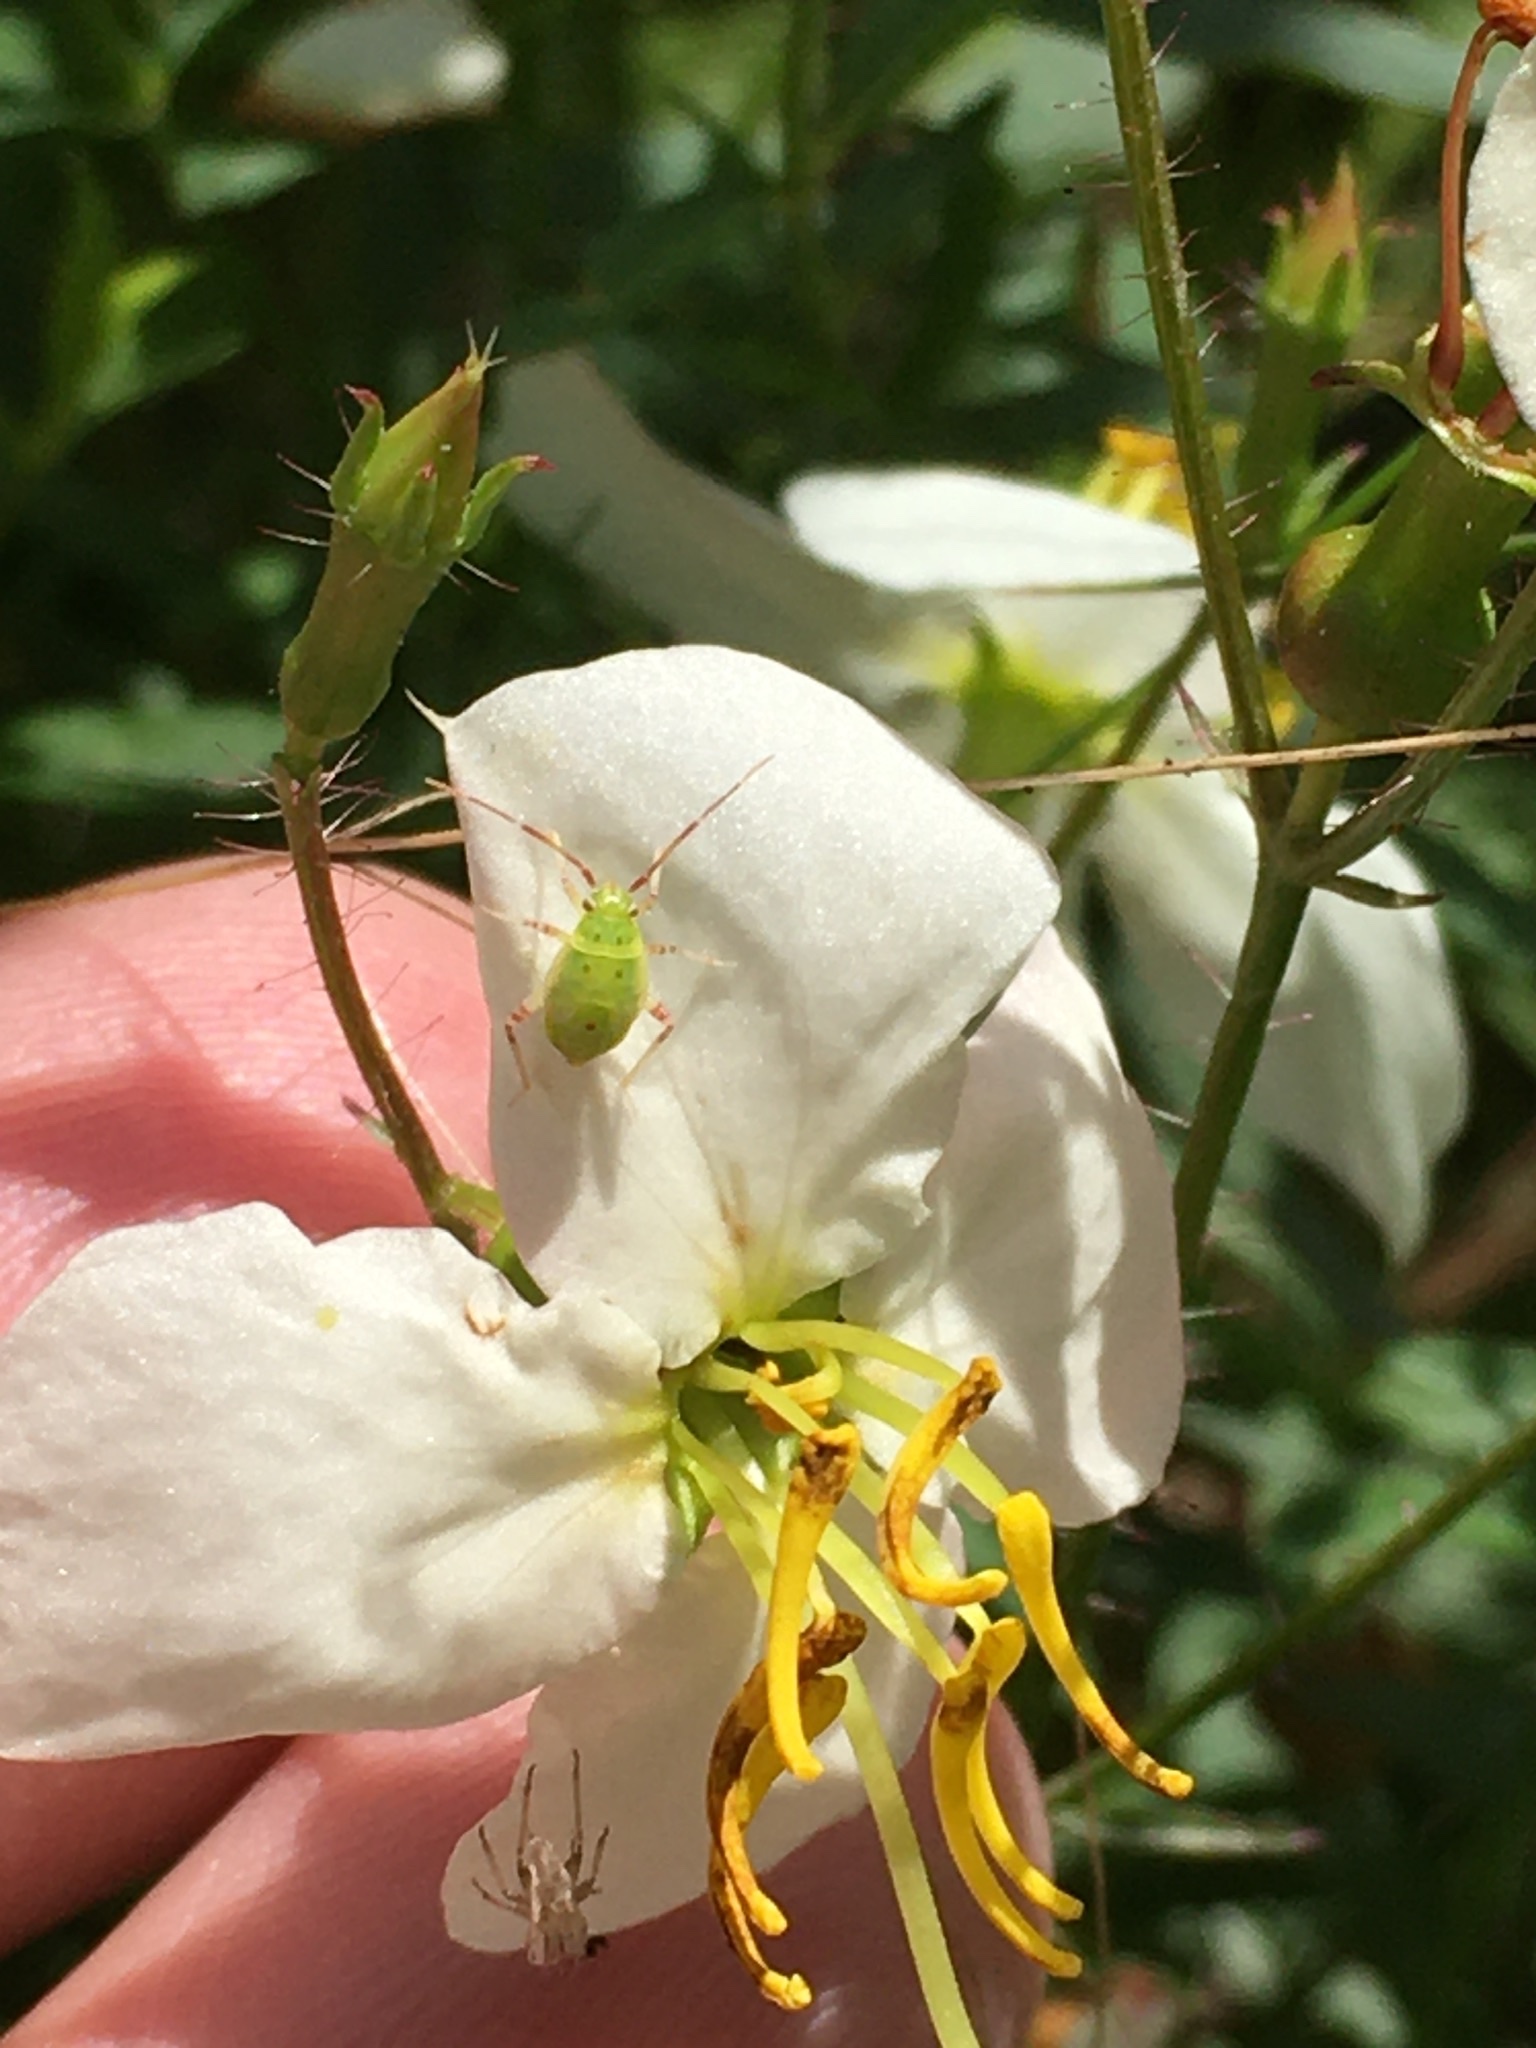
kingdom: Plantae
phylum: Tracheophyta
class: Magnoliopsida
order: Myrtales
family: Melastomataceae
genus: Rhexia
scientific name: Rhexia mariana
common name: Dull meadow-pitcher
